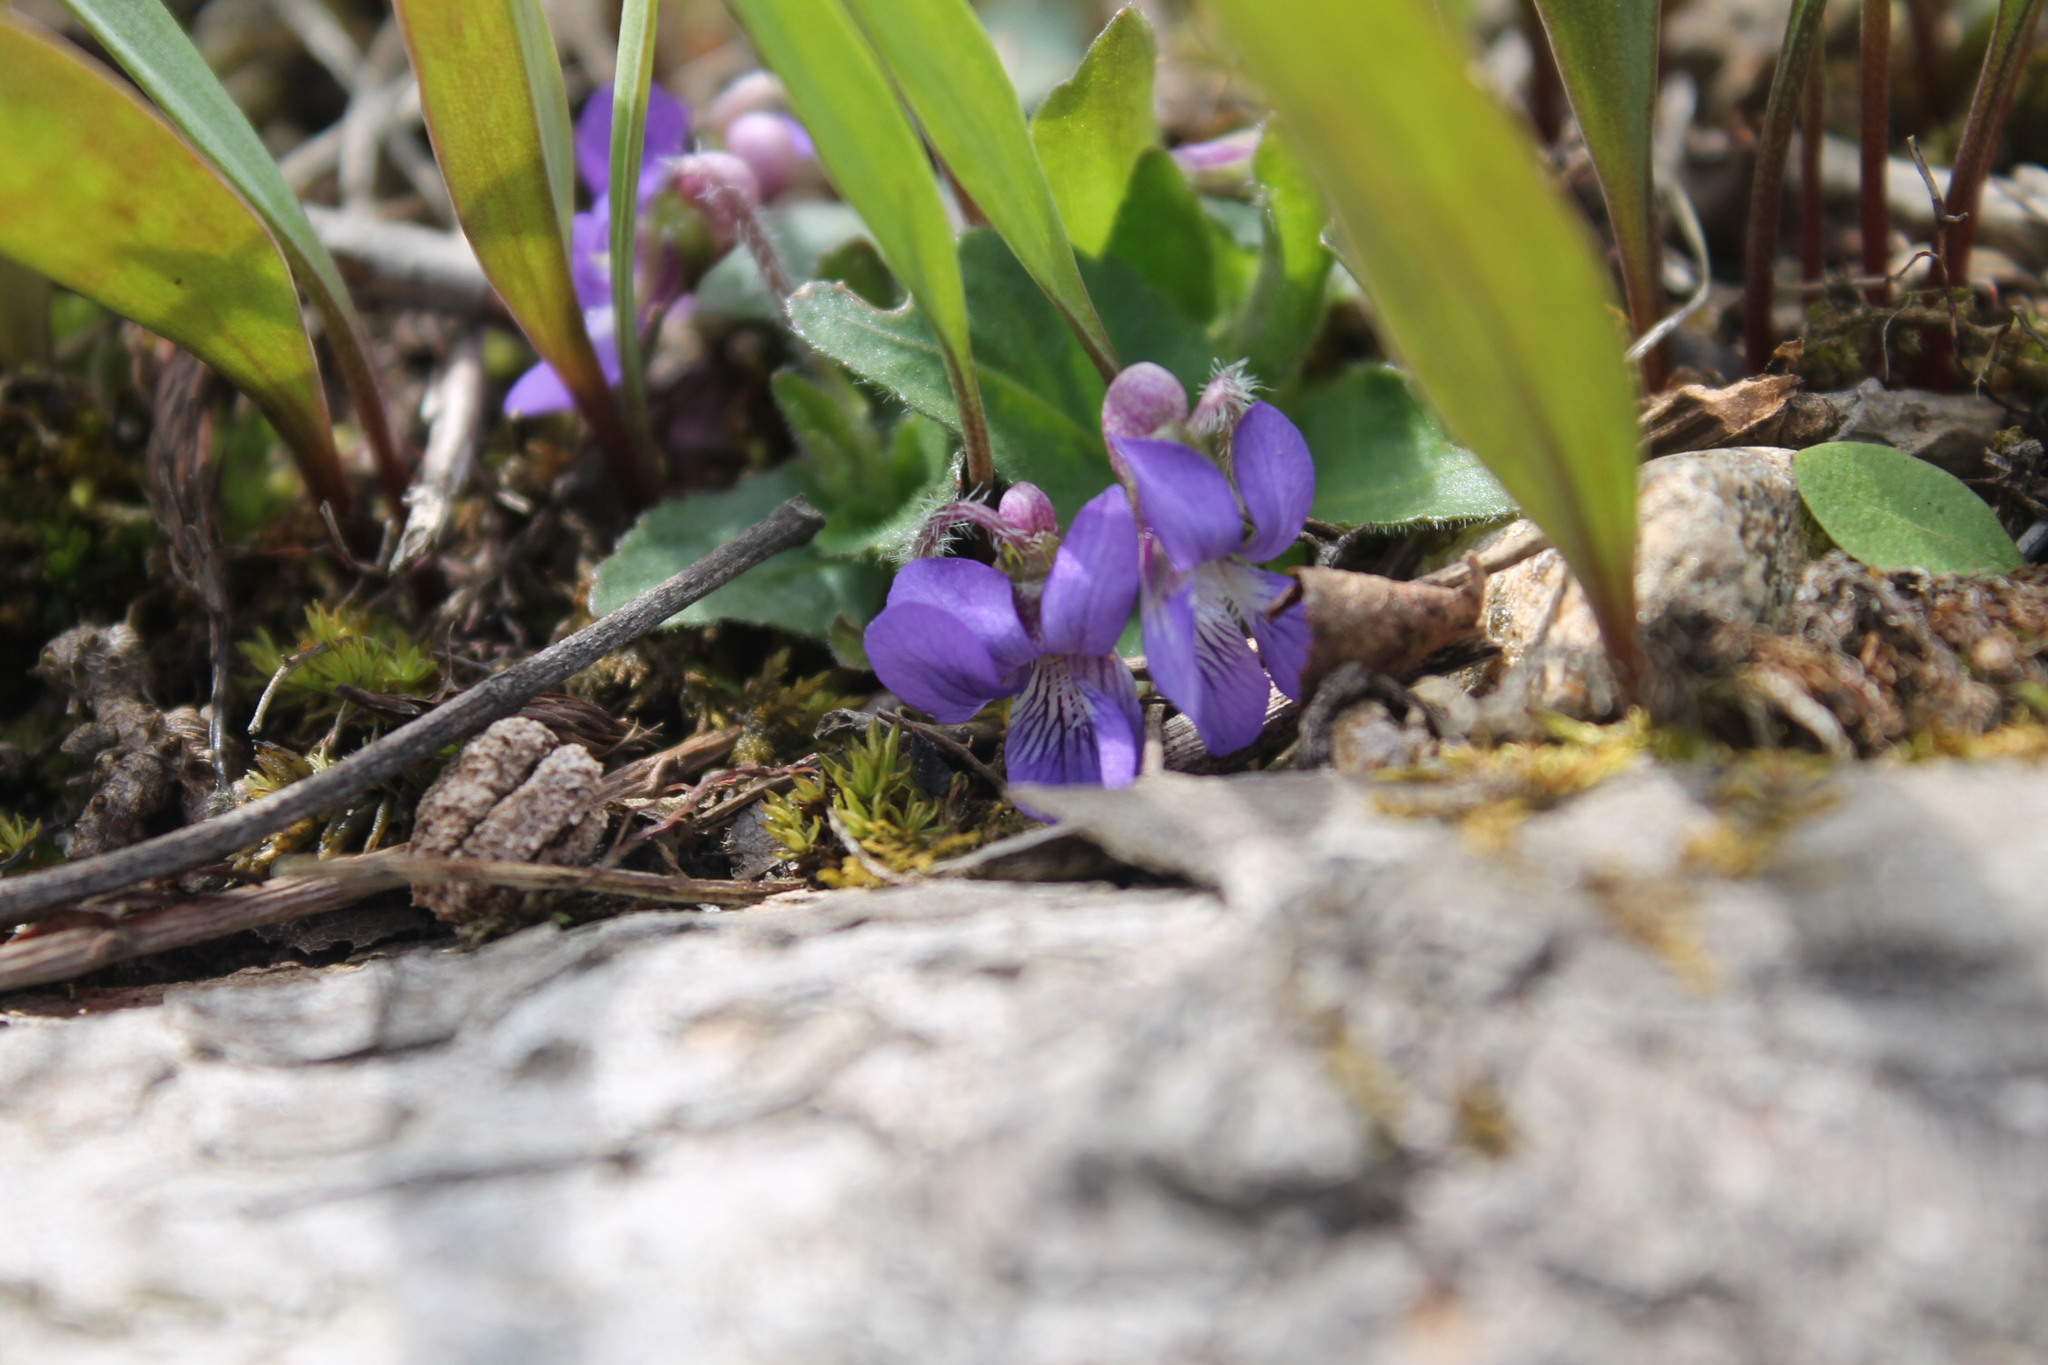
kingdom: Plantae
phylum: Tracheophyta
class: Magnoliopsida
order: Malpighiales
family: Violaceae
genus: Viola
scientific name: Viola sagittata
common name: Arrowhead violet
